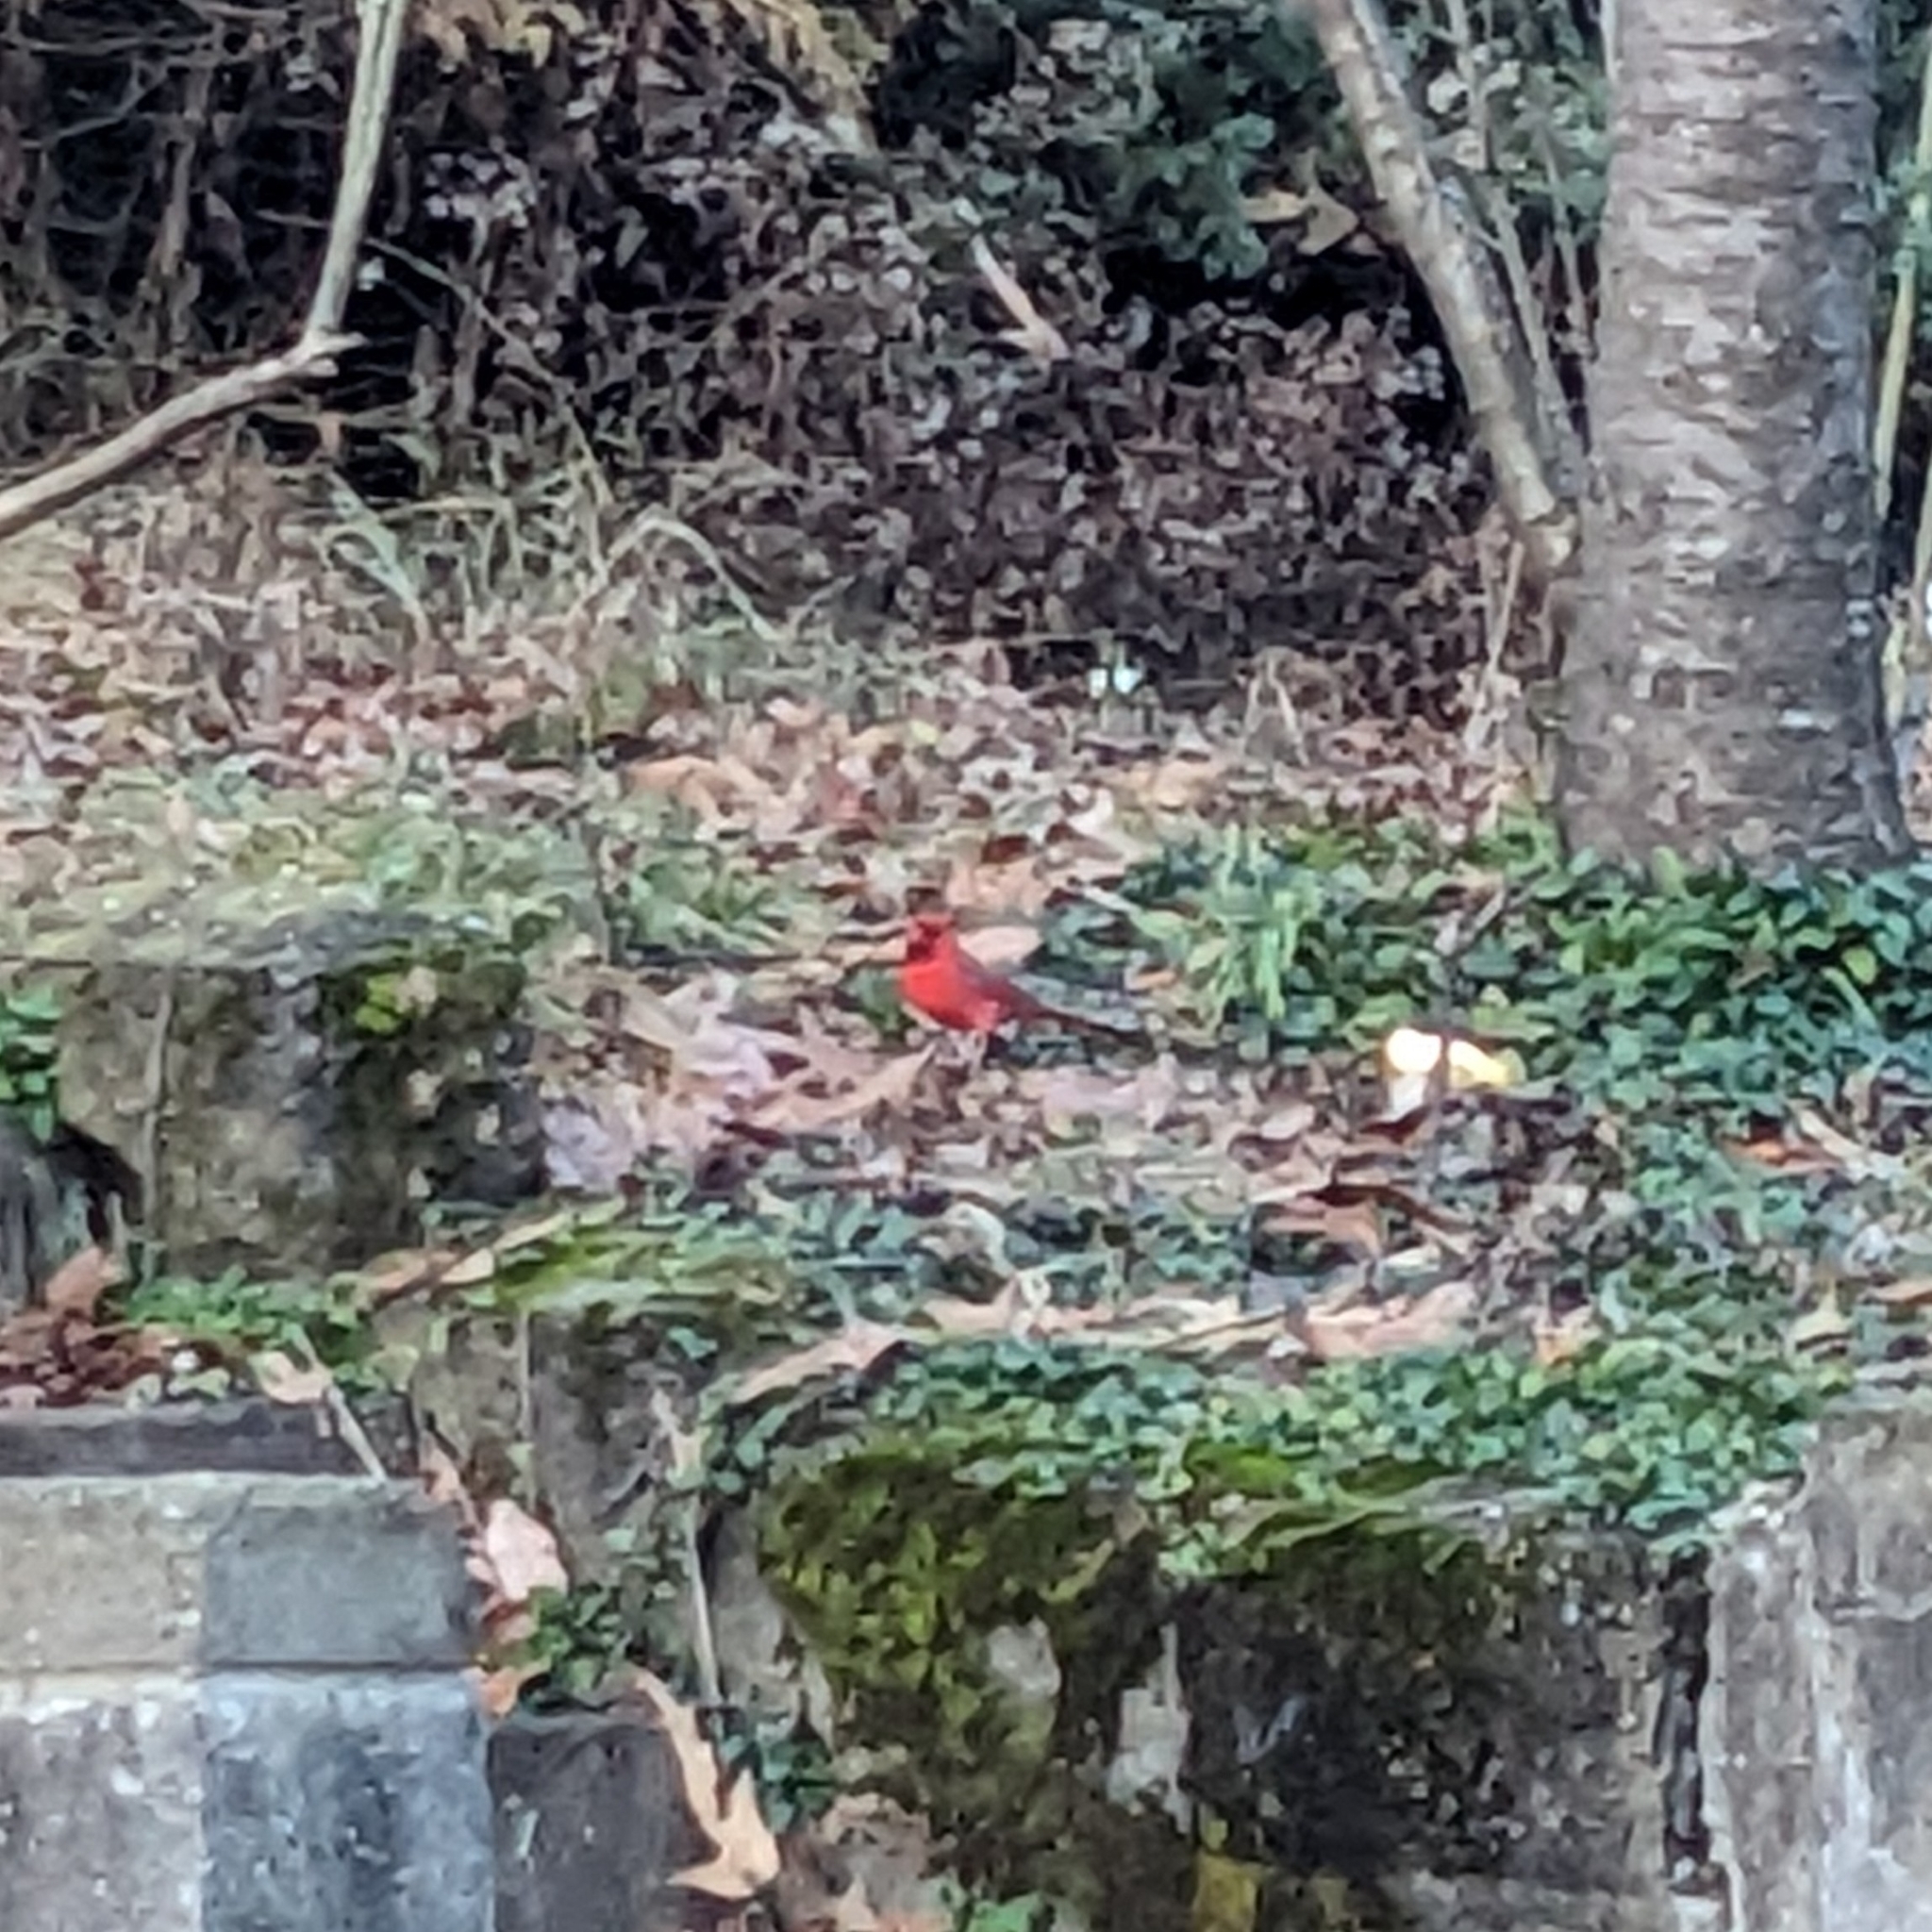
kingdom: Animalia
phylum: Chordata
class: Aves
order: Passeriformes
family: Cardinalidae
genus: Cardinalis
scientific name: Cardinalis cardinalis
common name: Northern cardinal
